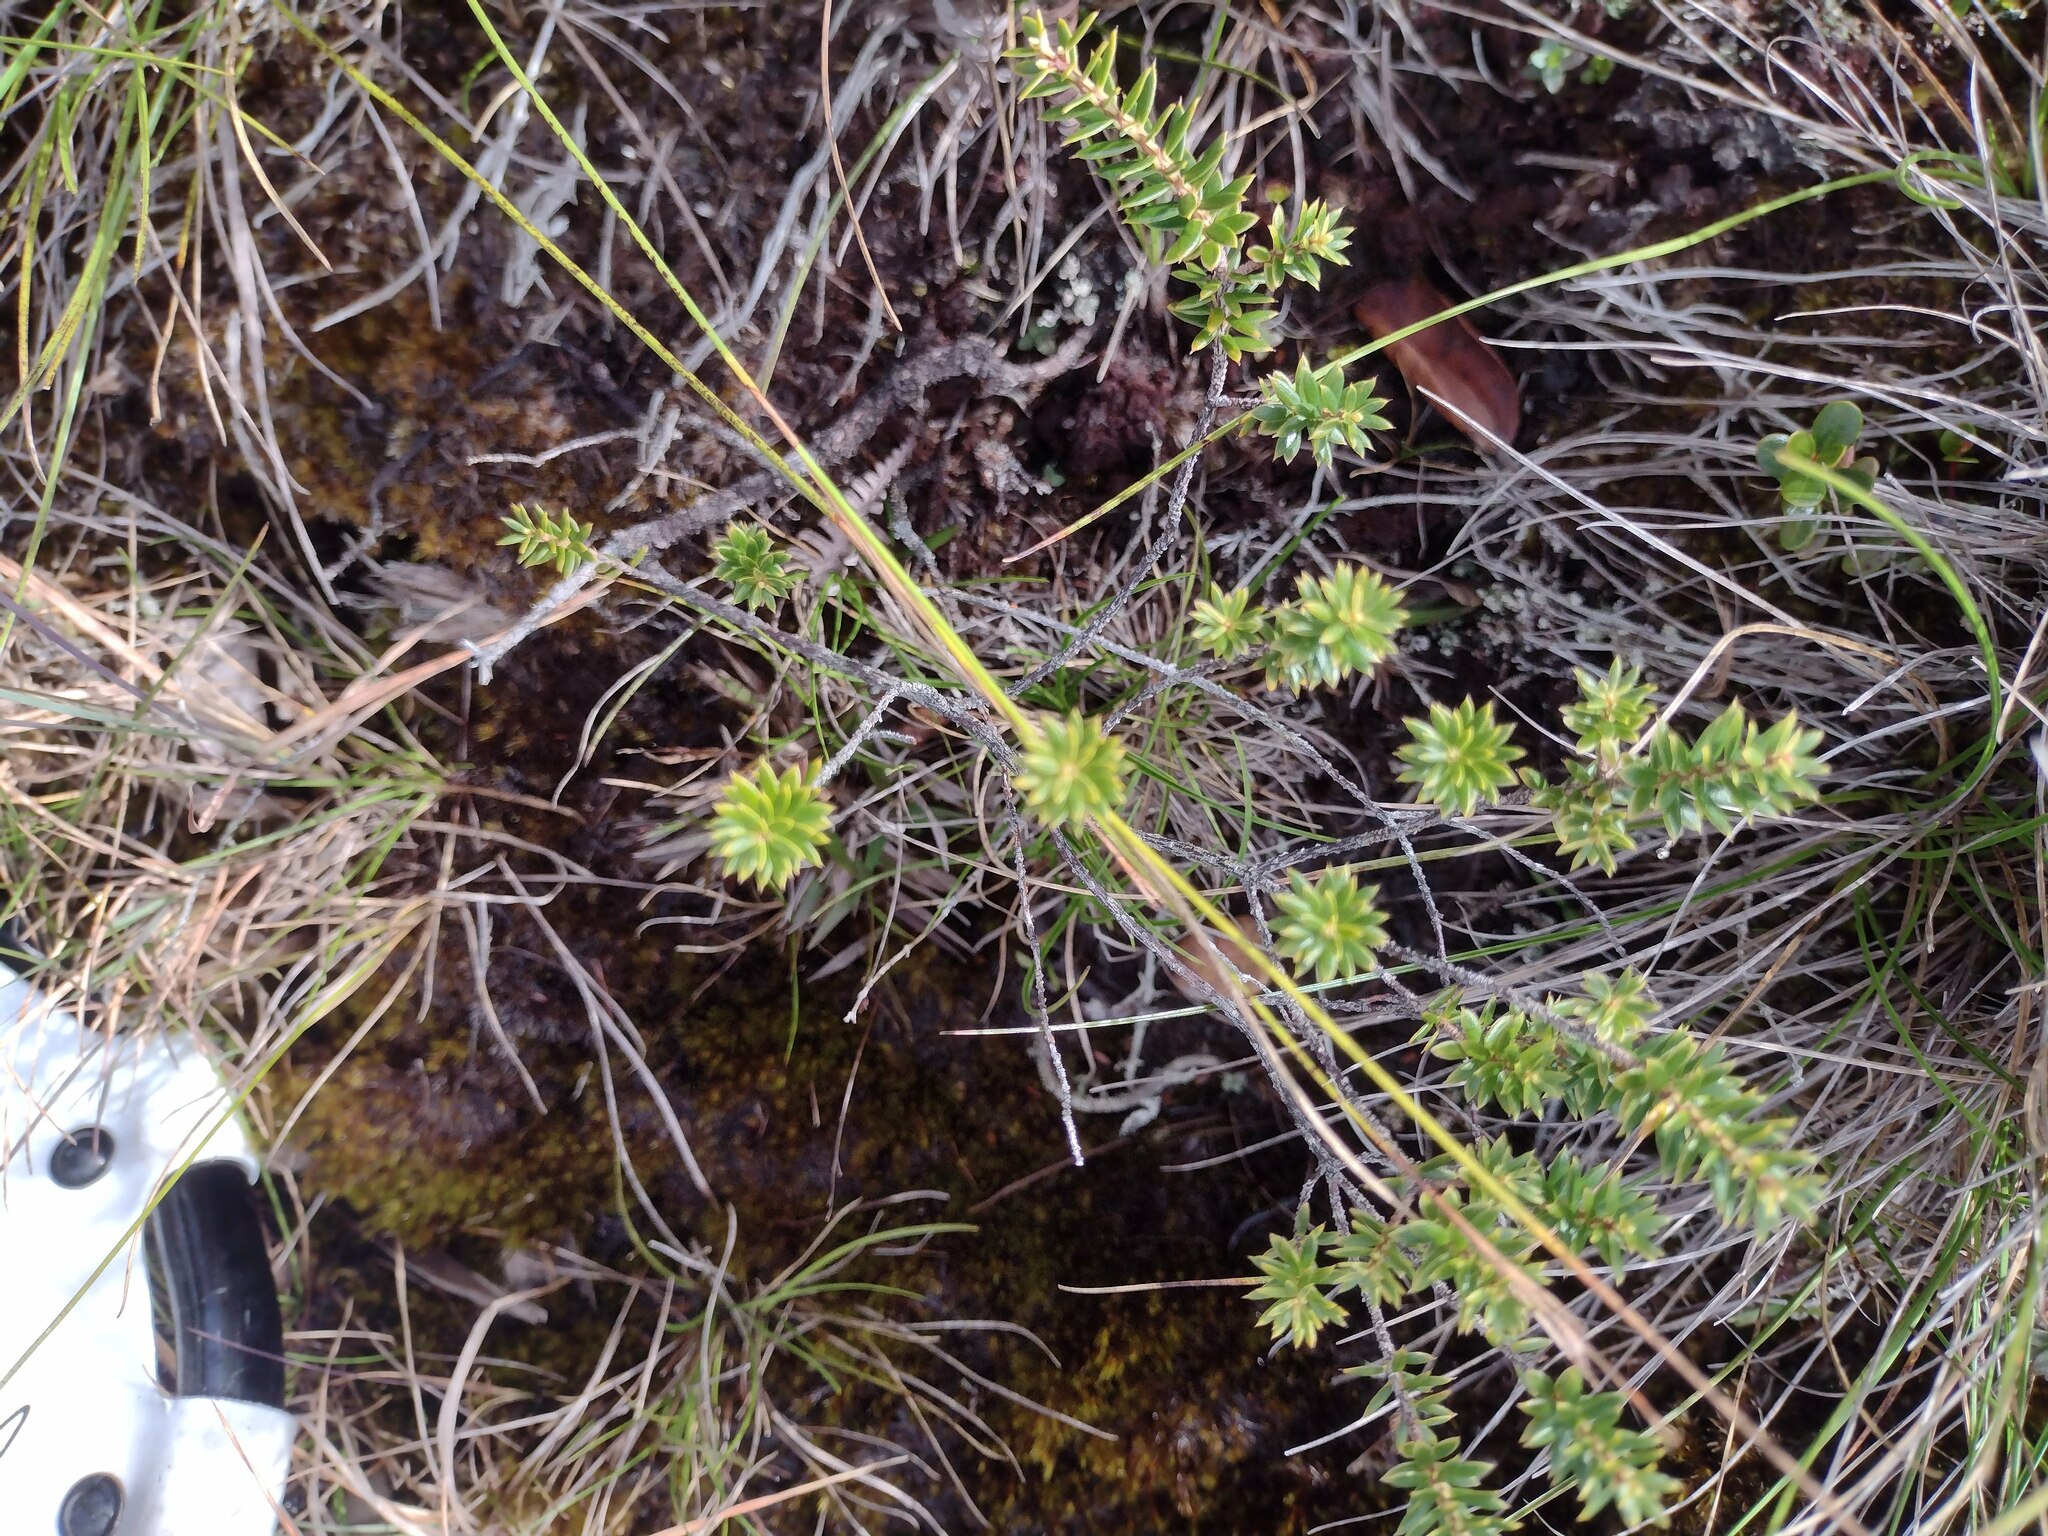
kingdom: Plantae
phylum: Tracheophyta
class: Magnoliopsida
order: Ericales
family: Ericaceae
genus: Leptecophylla
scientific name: Leptecophylla tameiameiae
